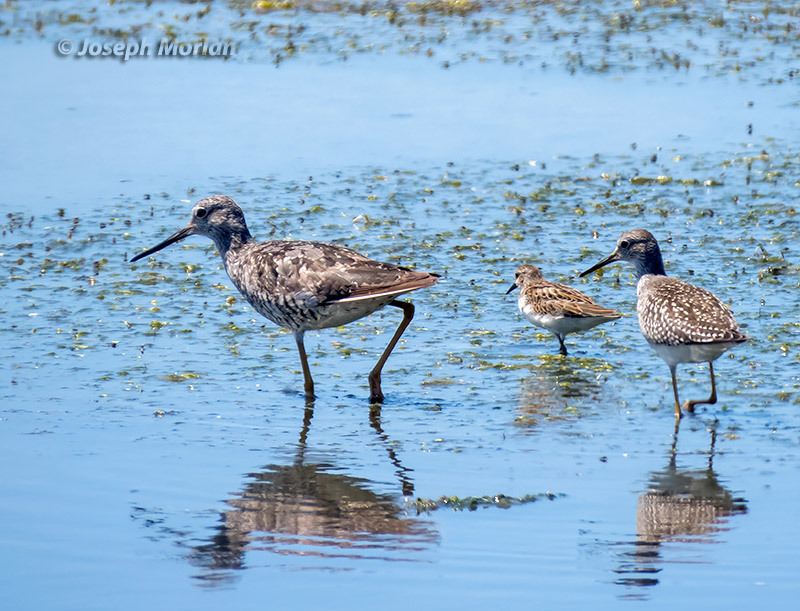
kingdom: Animalia
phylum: Chordata
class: Aves
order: Charadriiformes
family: Scolopacidae
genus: Tringa
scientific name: Tringa melanoleuca
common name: Greater yellowlegs
